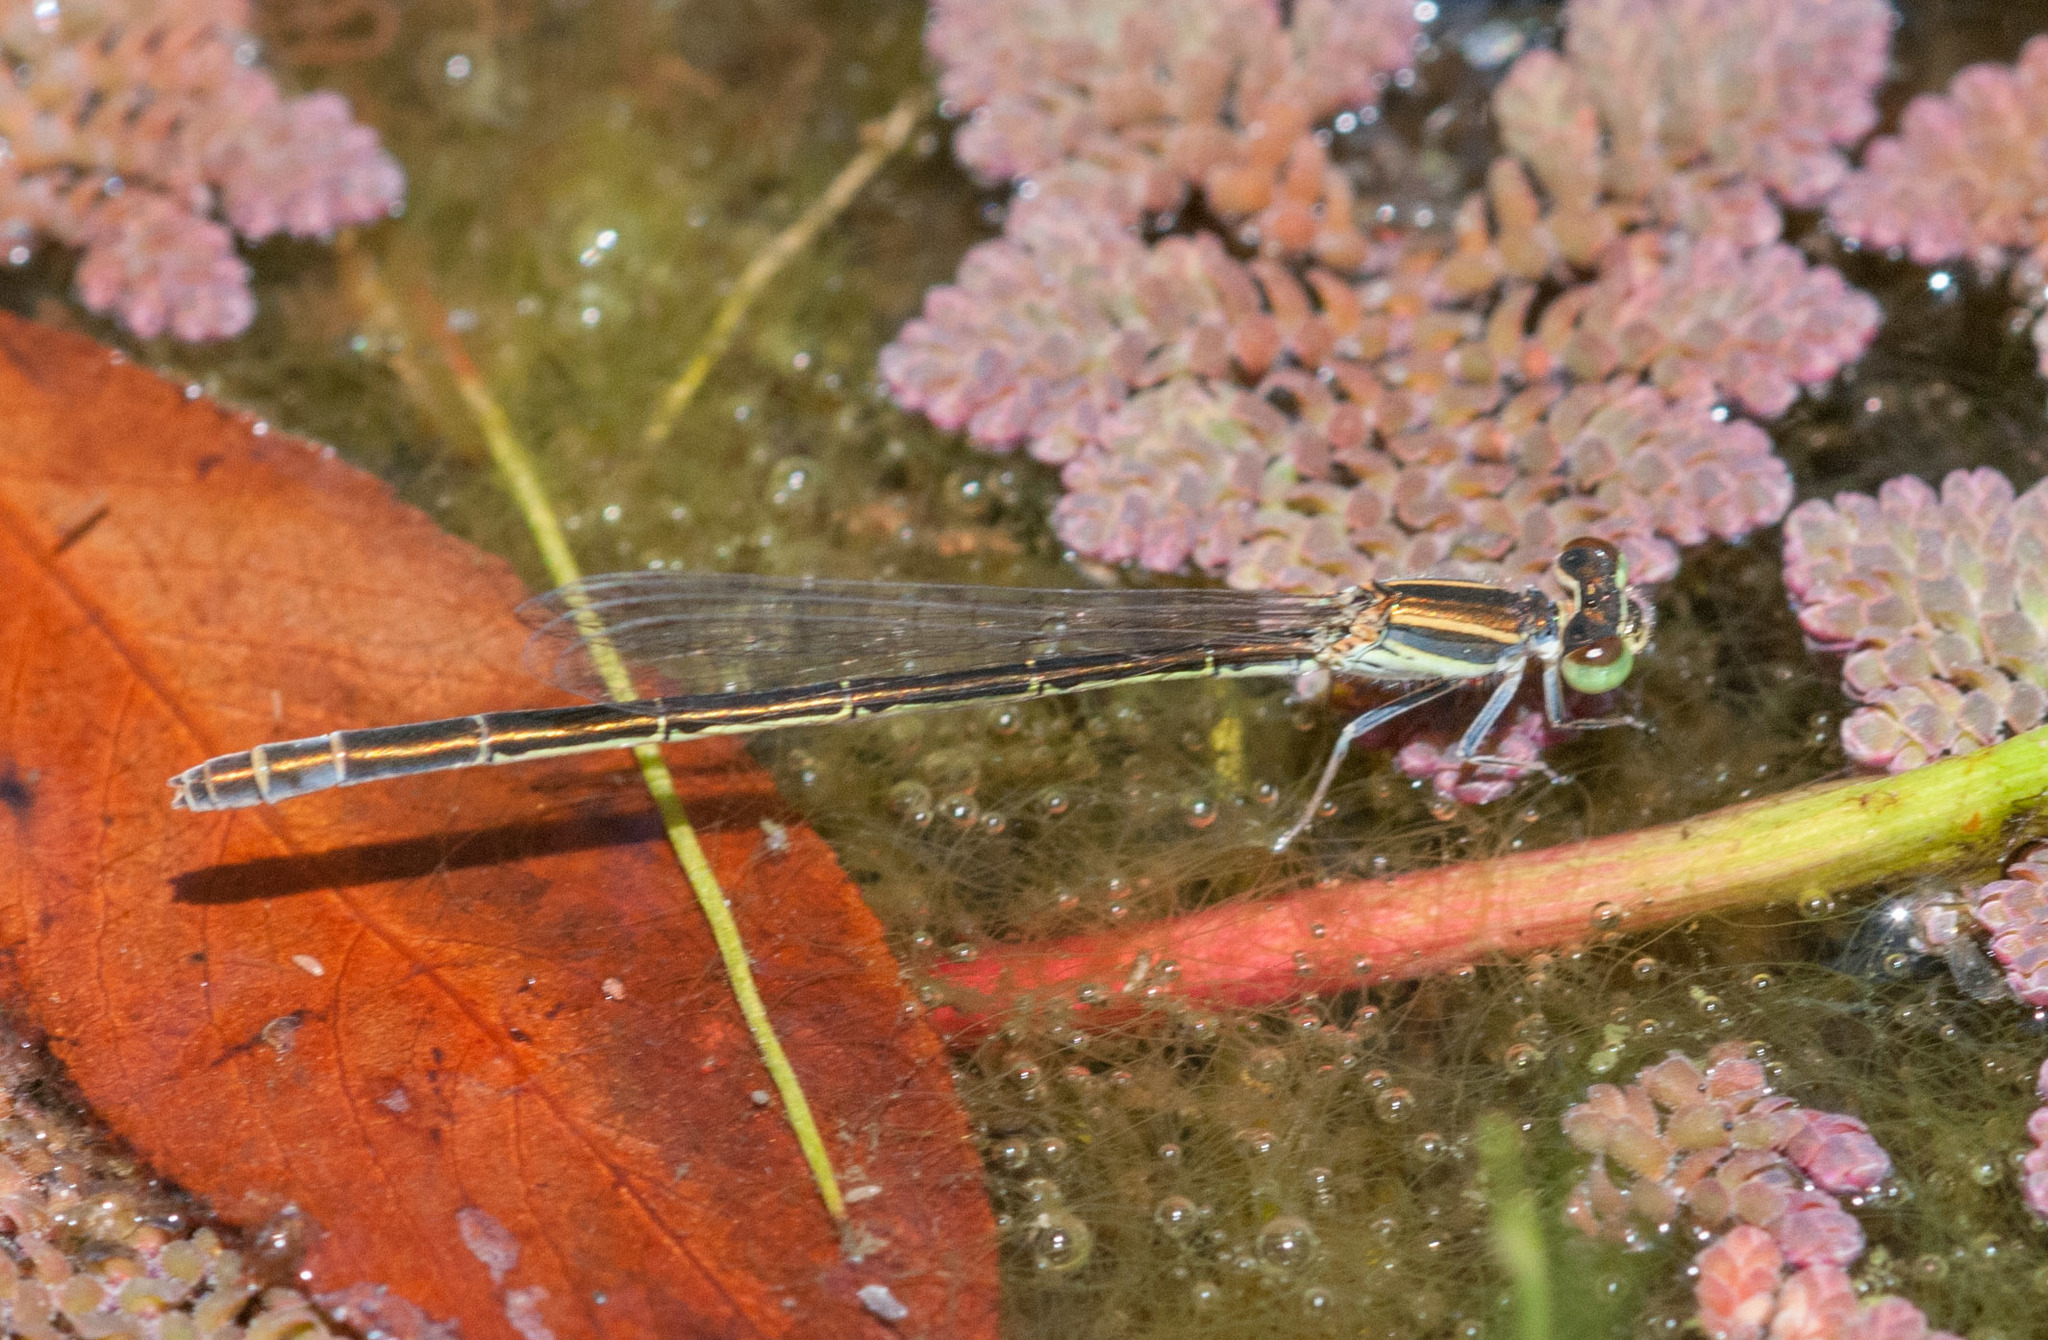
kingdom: Animalia
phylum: Arthropoda
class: Insecta
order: Odonata
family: Coenagrionidae
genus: Ischnura
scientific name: Ischnura aurora
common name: Gossamer damselfly
